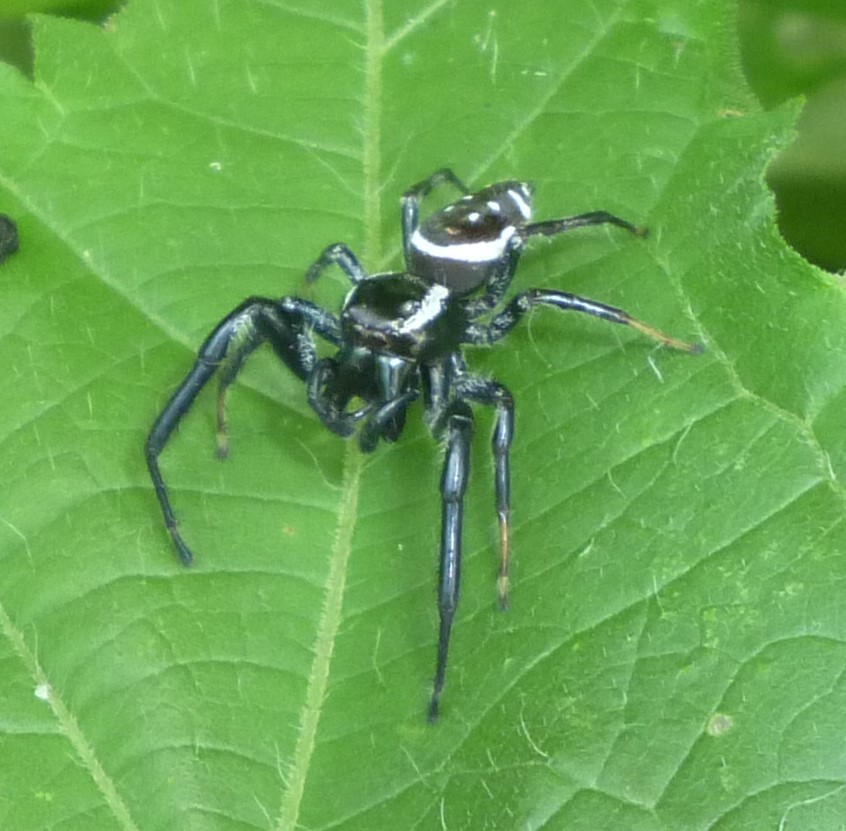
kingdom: Animalia
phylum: Arthropoda
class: Arachnida
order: Araneae
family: Salticidae
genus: Paraphidippus
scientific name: Paraphidippus aurantius
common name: Jumping spiders
